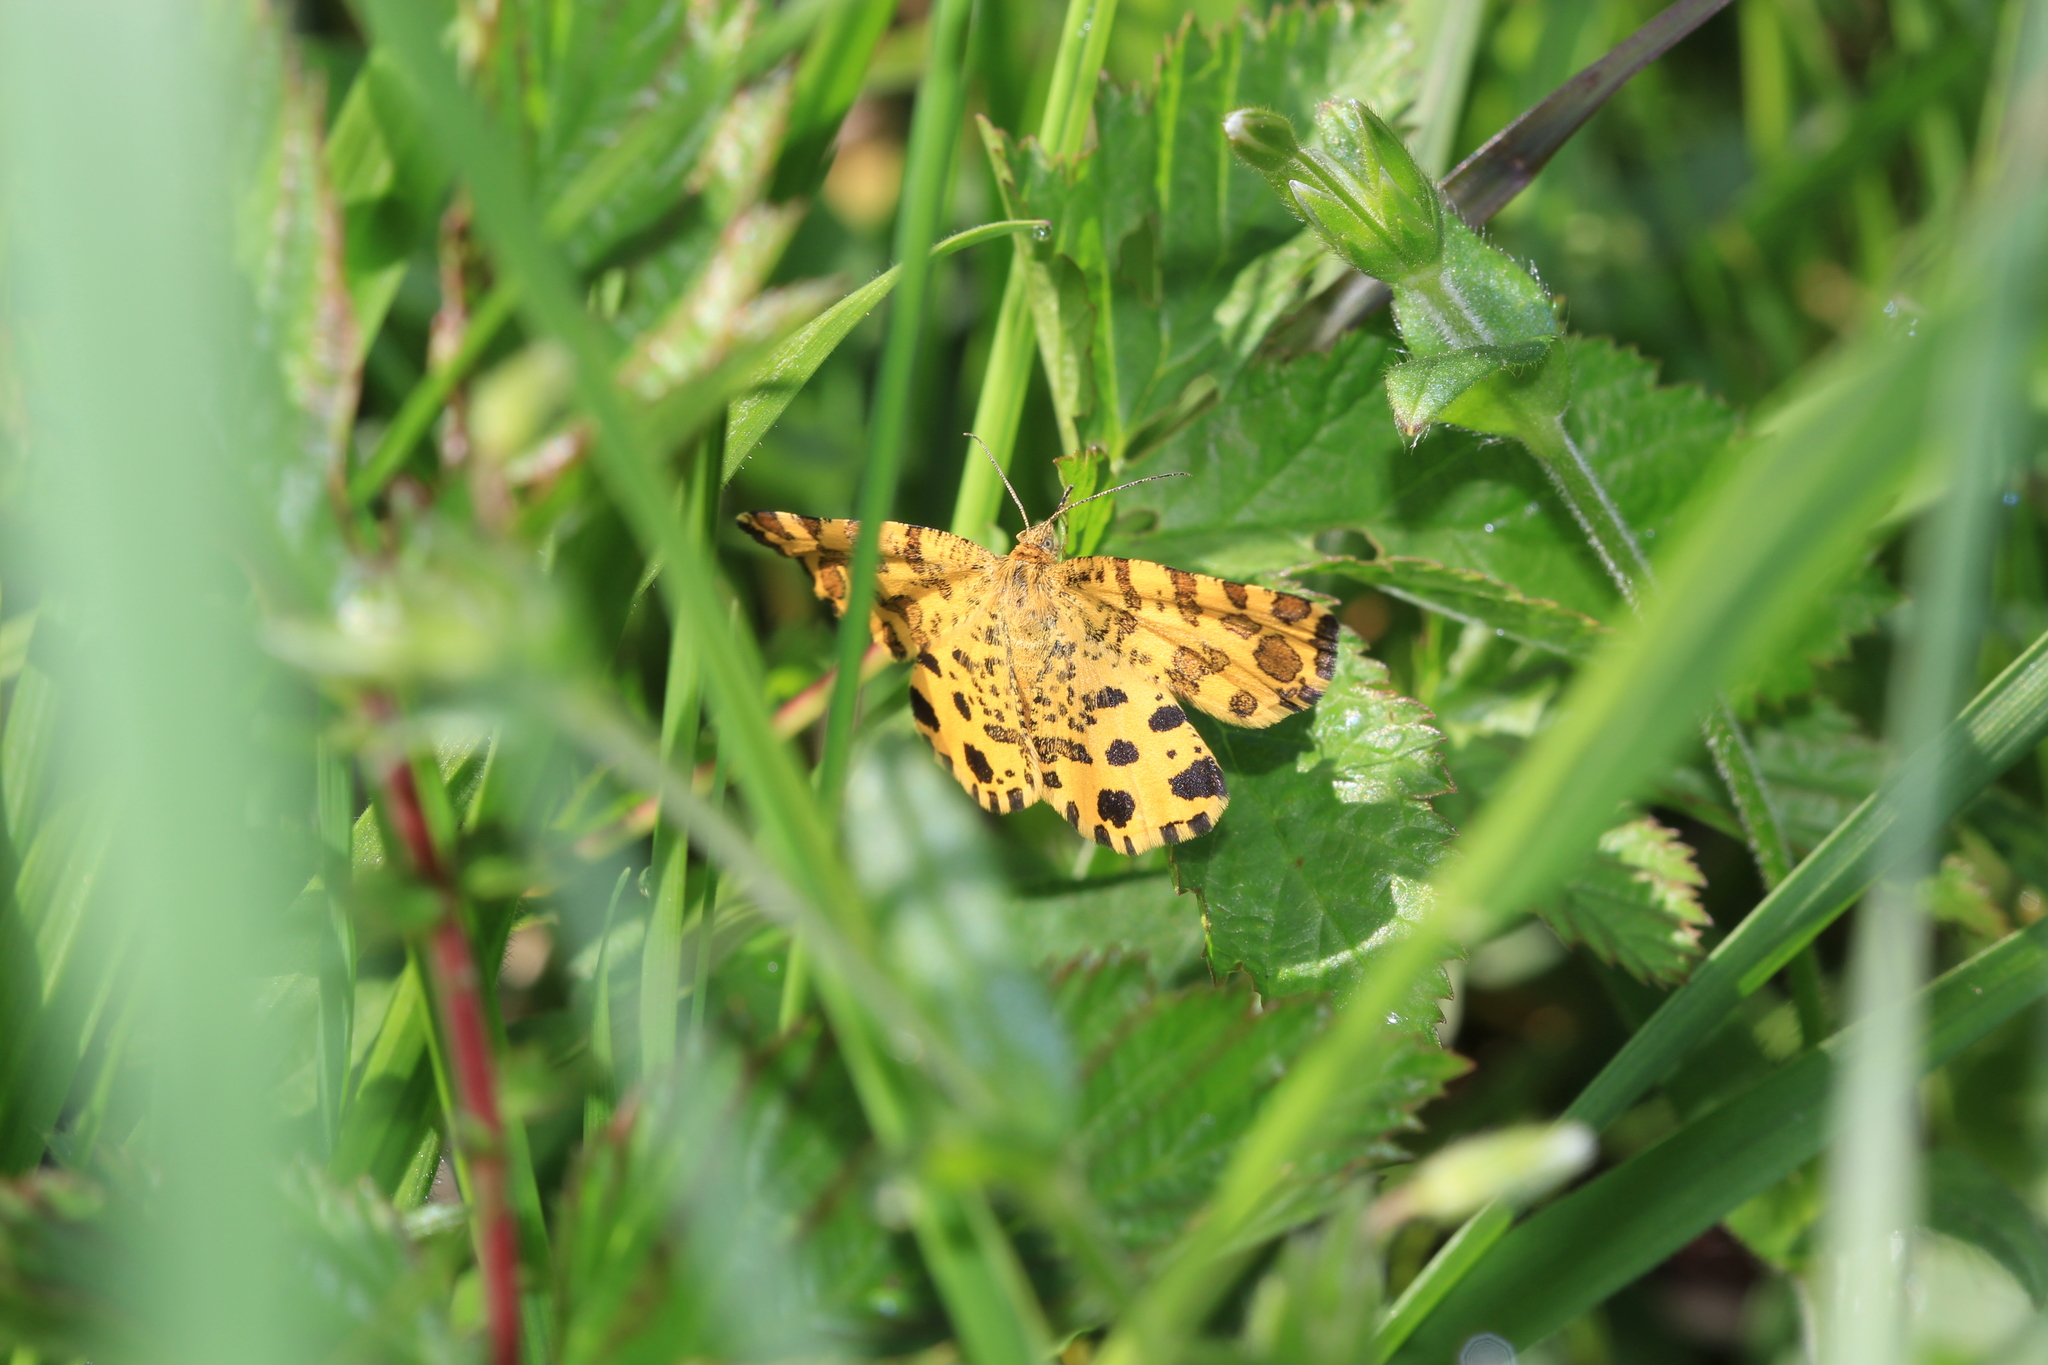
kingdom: Animalia
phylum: Arthropoda
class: Insecta
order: Lepidoptera
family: Geometridae
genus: Pseudopanthera
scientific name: Pseudopanthera macularia
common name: Speckled yellow
